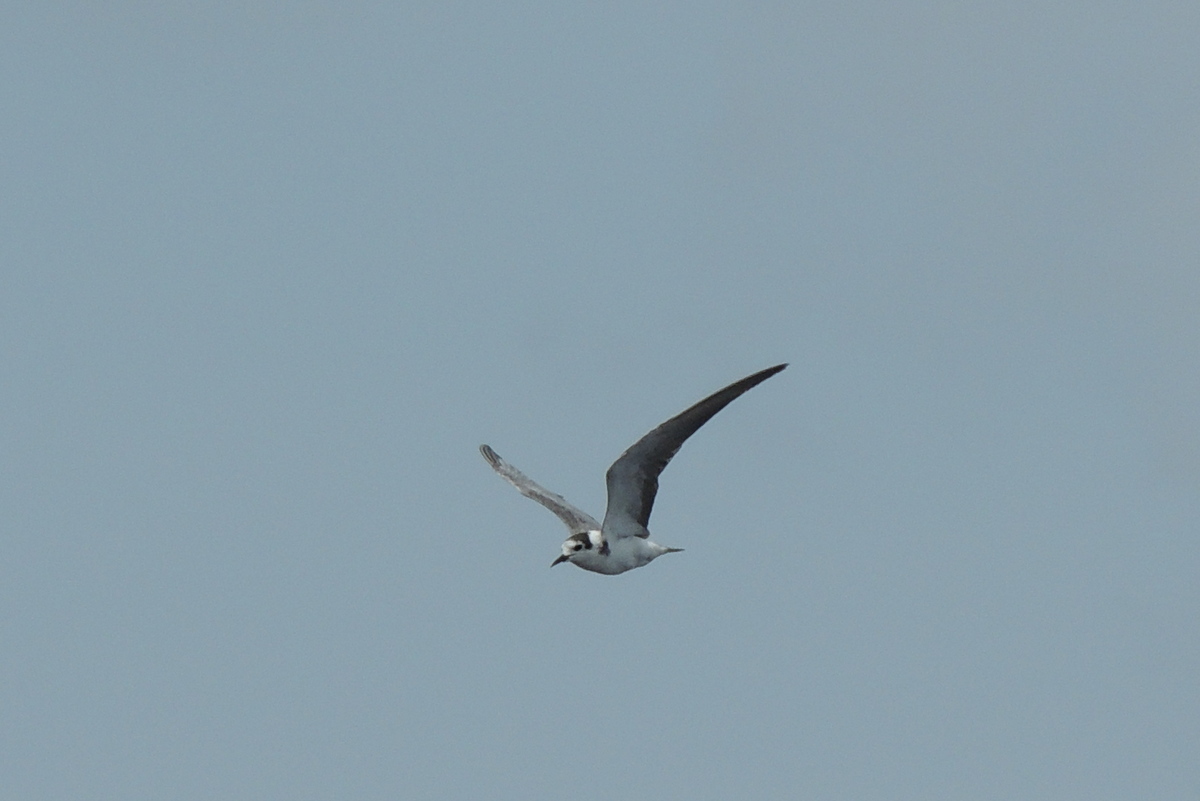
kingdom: Animalia
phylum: Chordata
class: Aves
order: Charadriiformes
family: Laridae
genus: Chlidonias
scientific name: Chlidonias niger
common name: Black tern
